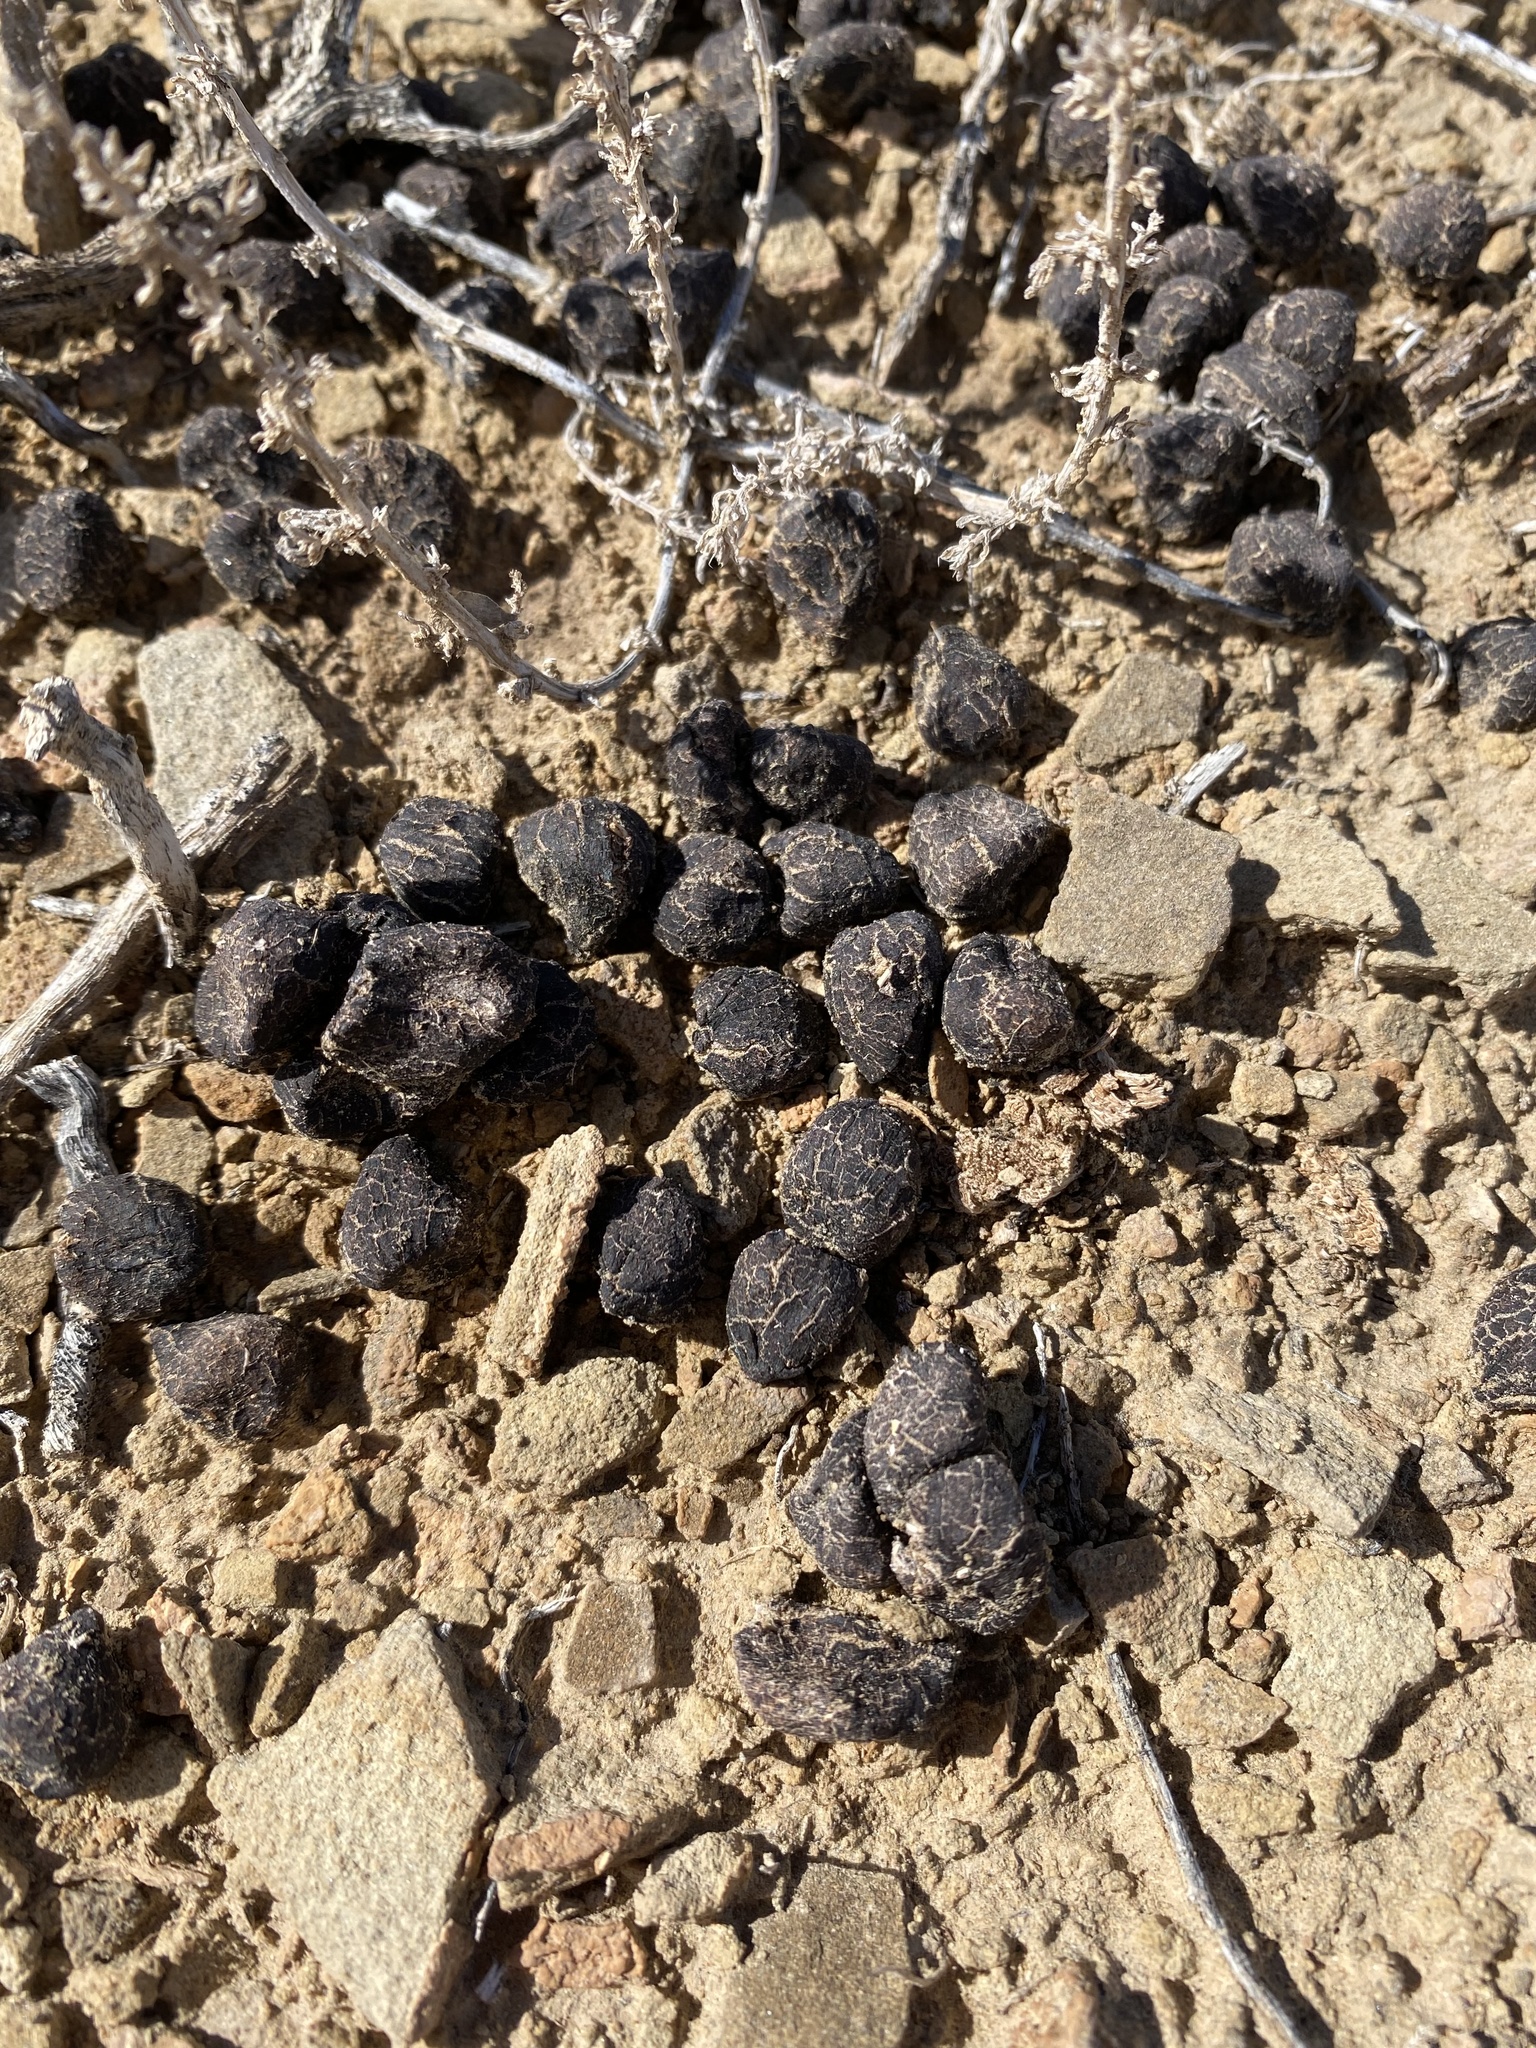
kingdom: Animalia
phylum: Chordata
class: Mammalia
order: Artiodactyla
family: Antilocapridae
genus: Antilocapra
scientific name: Antilocapra americana
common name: Pronghorn
